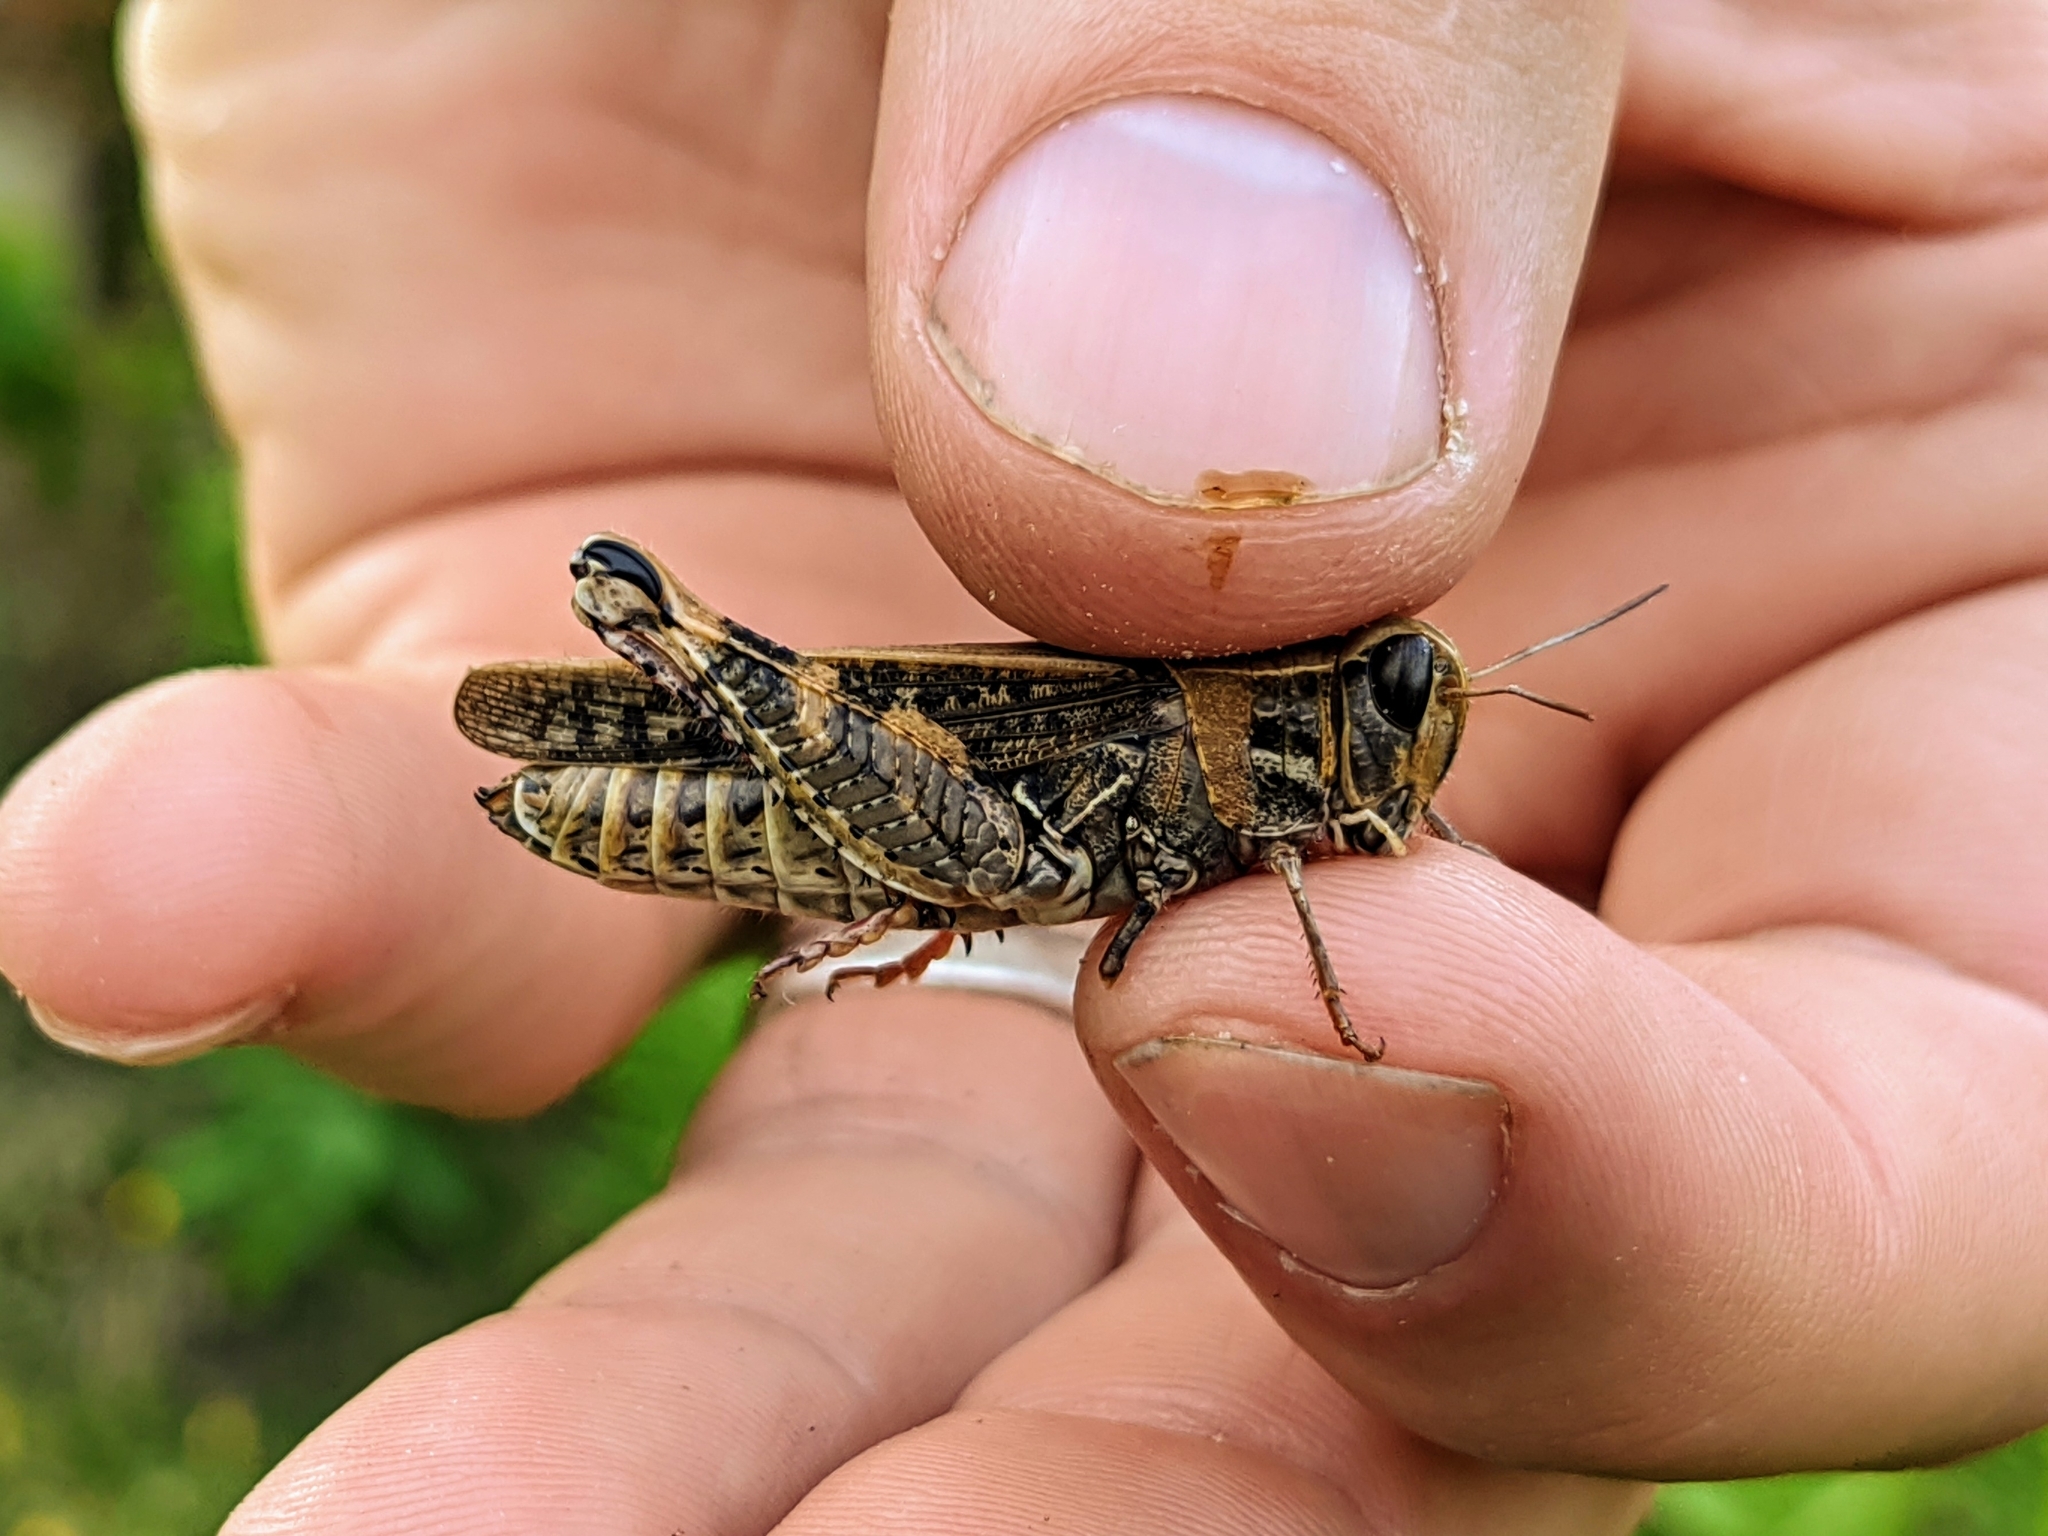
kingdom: Animalia
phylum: Arthropoda
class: Insecta
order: Orthoptera
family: Acrididae
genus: Calliptamus
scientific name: Calliptamus italicus
